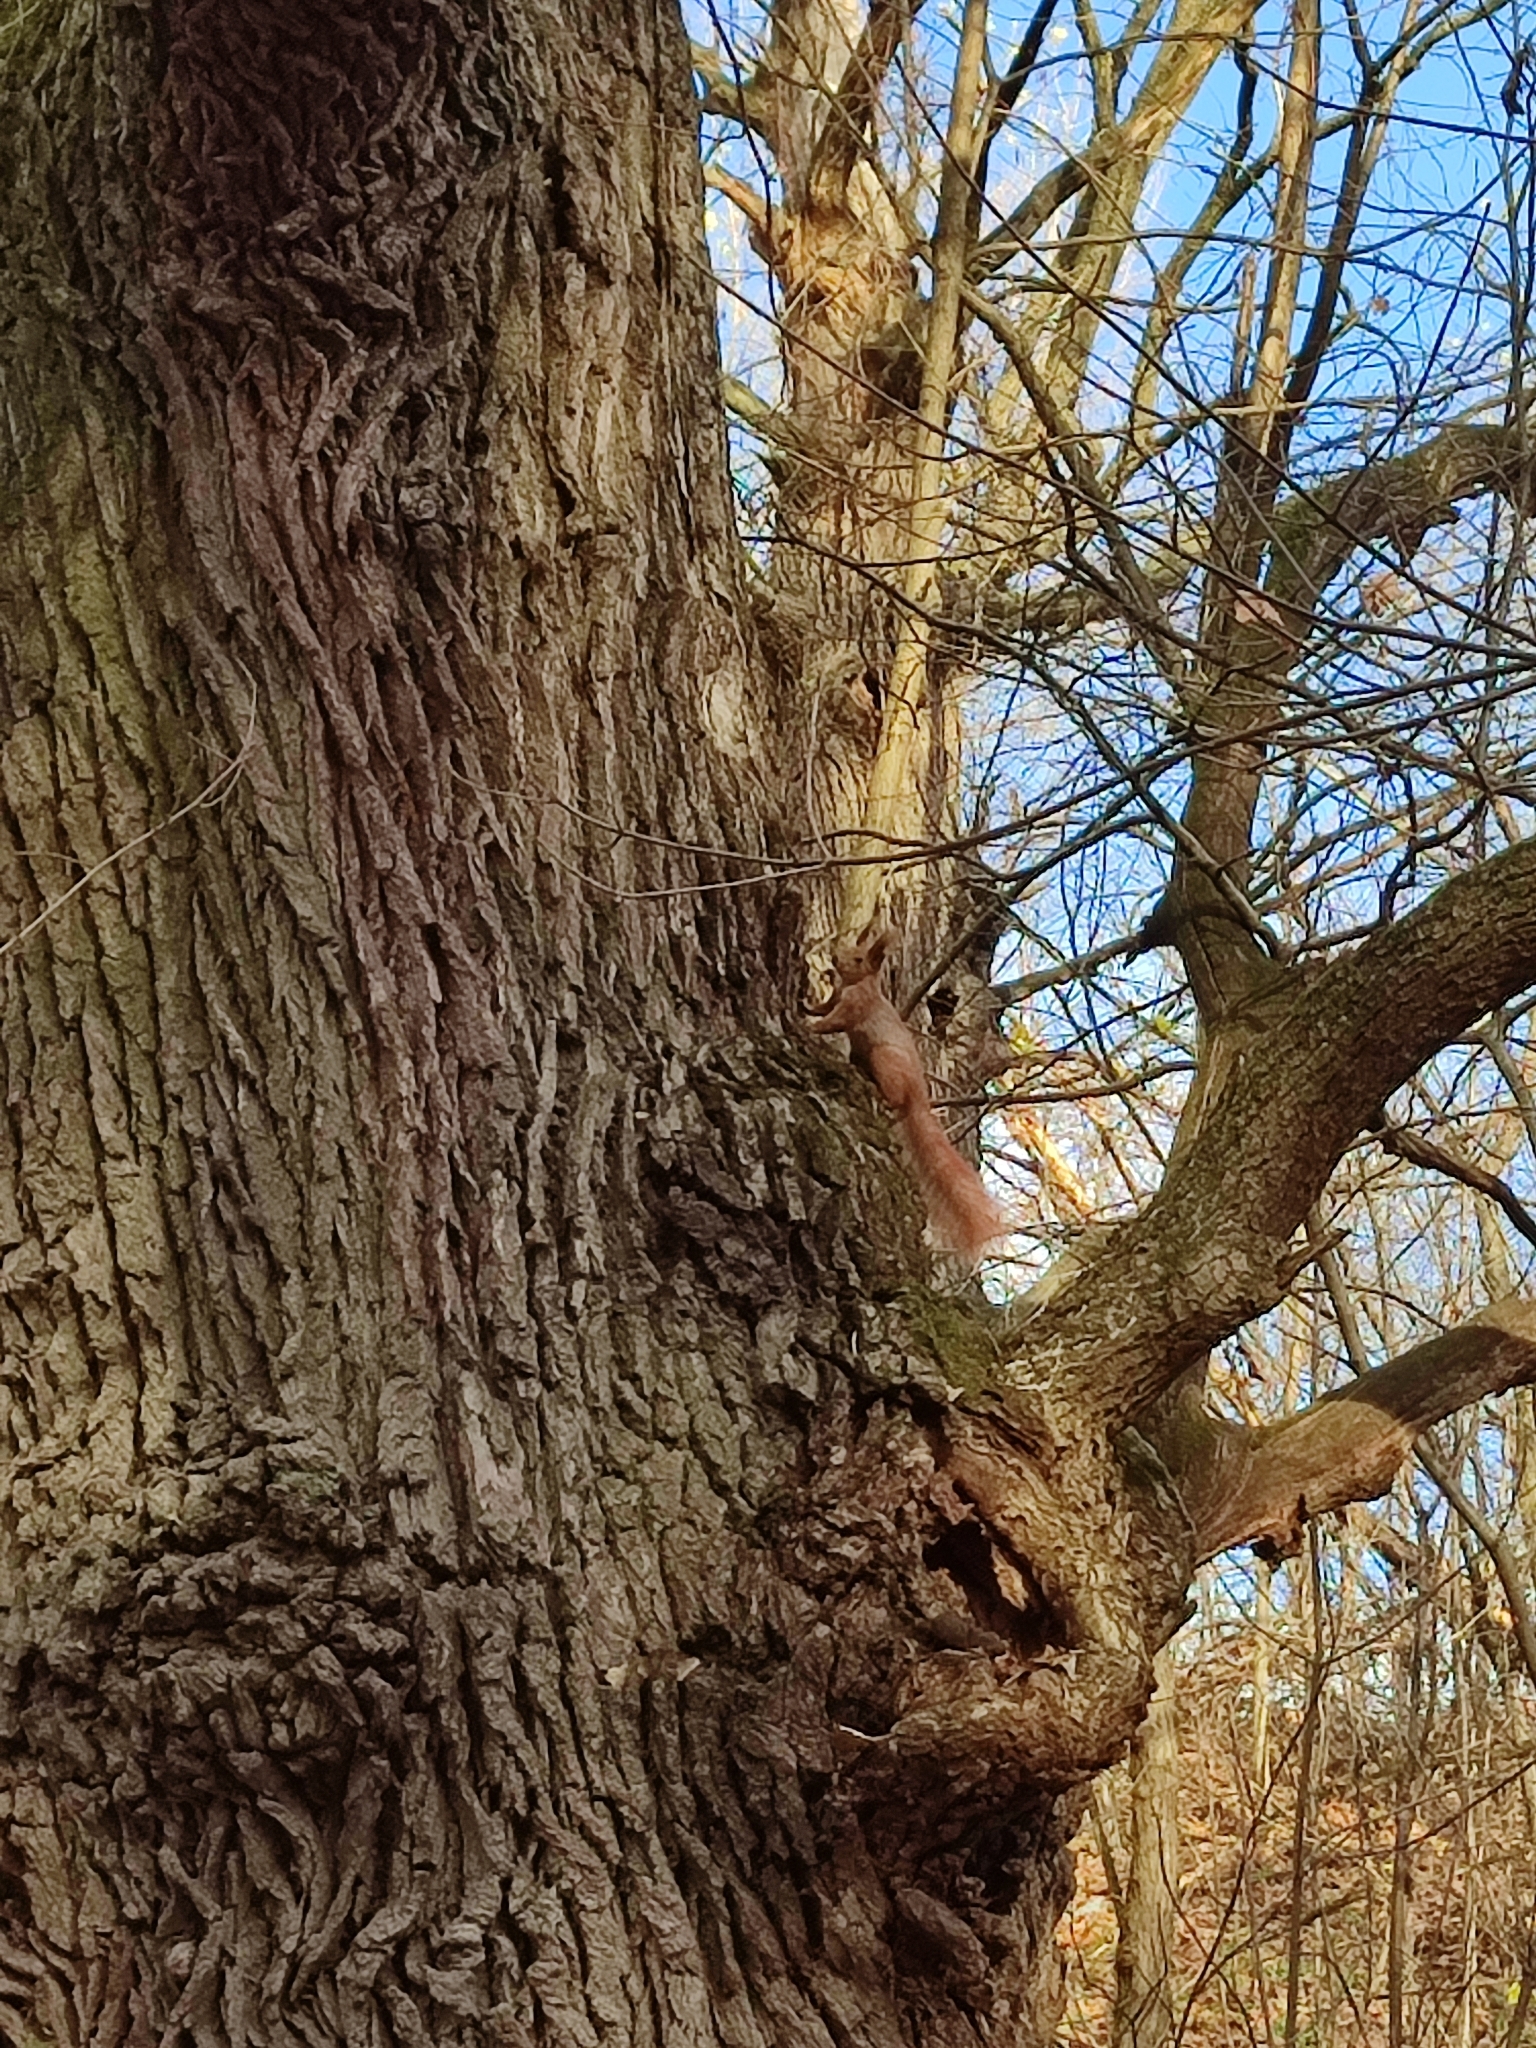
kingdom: Animalia
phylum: Chordata
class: Mammalia
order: Rodentia
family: Sciuridae
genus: Sciurus
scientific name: Sciurus vulgaris
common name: Eurasian red squirrel
